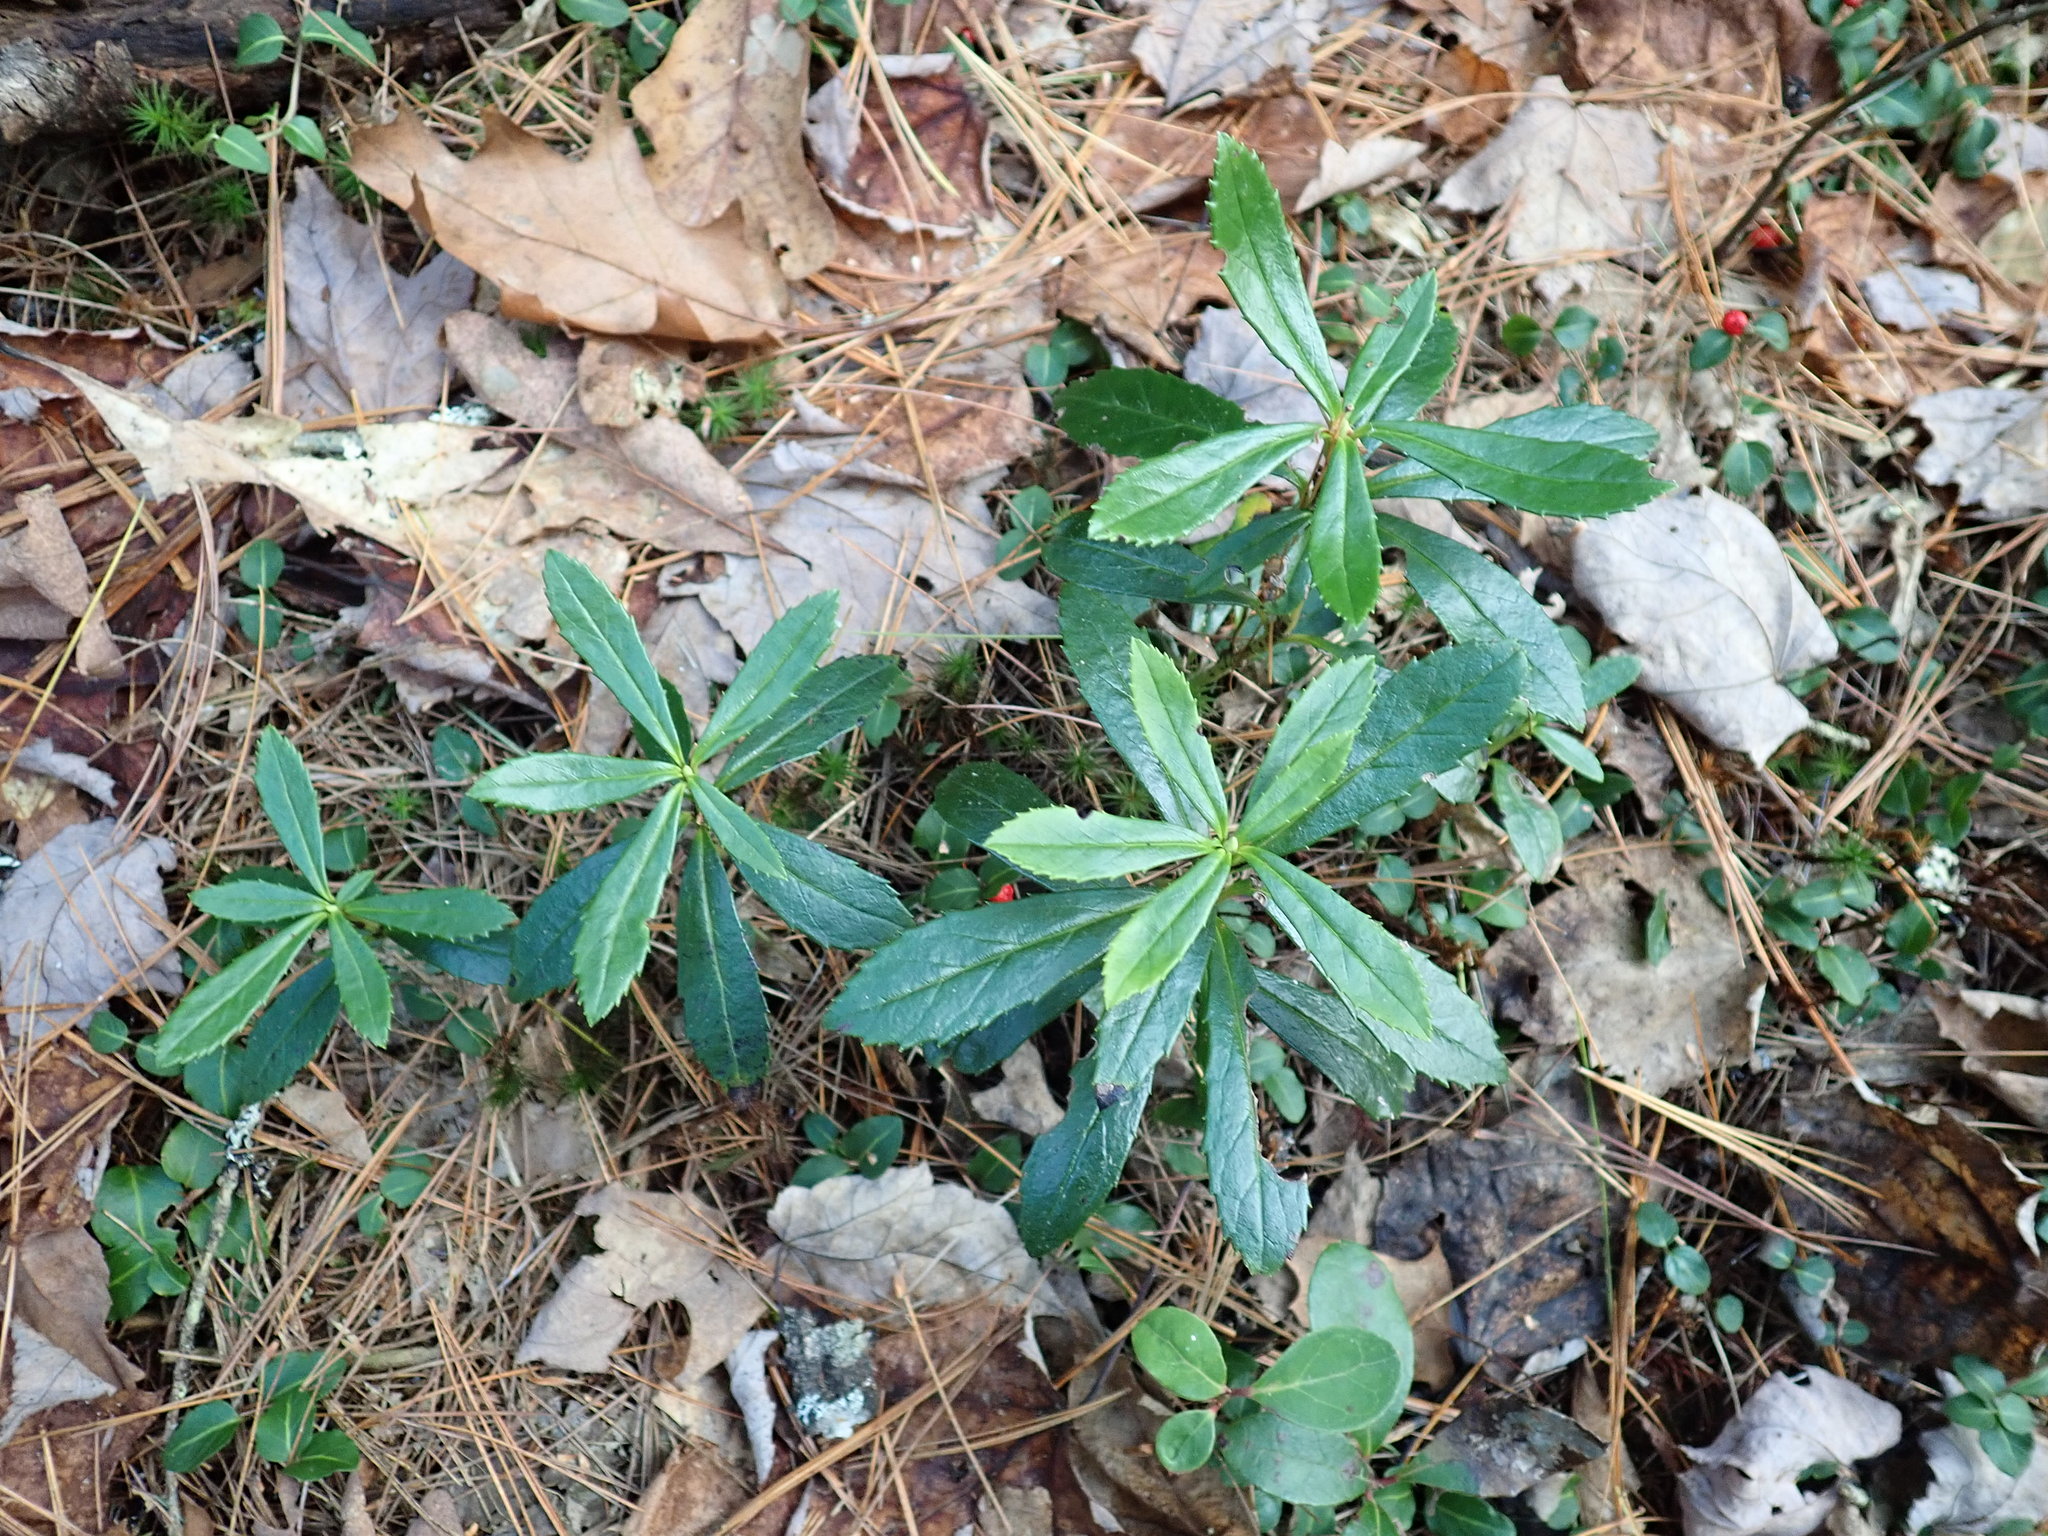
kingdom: Plantae
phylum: Tracheophyta
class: Magnoliopsida
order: Ericales
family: Ericaceae
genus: Chimaphila
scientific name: Chimaphila umbellata
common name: Pipsissewa
